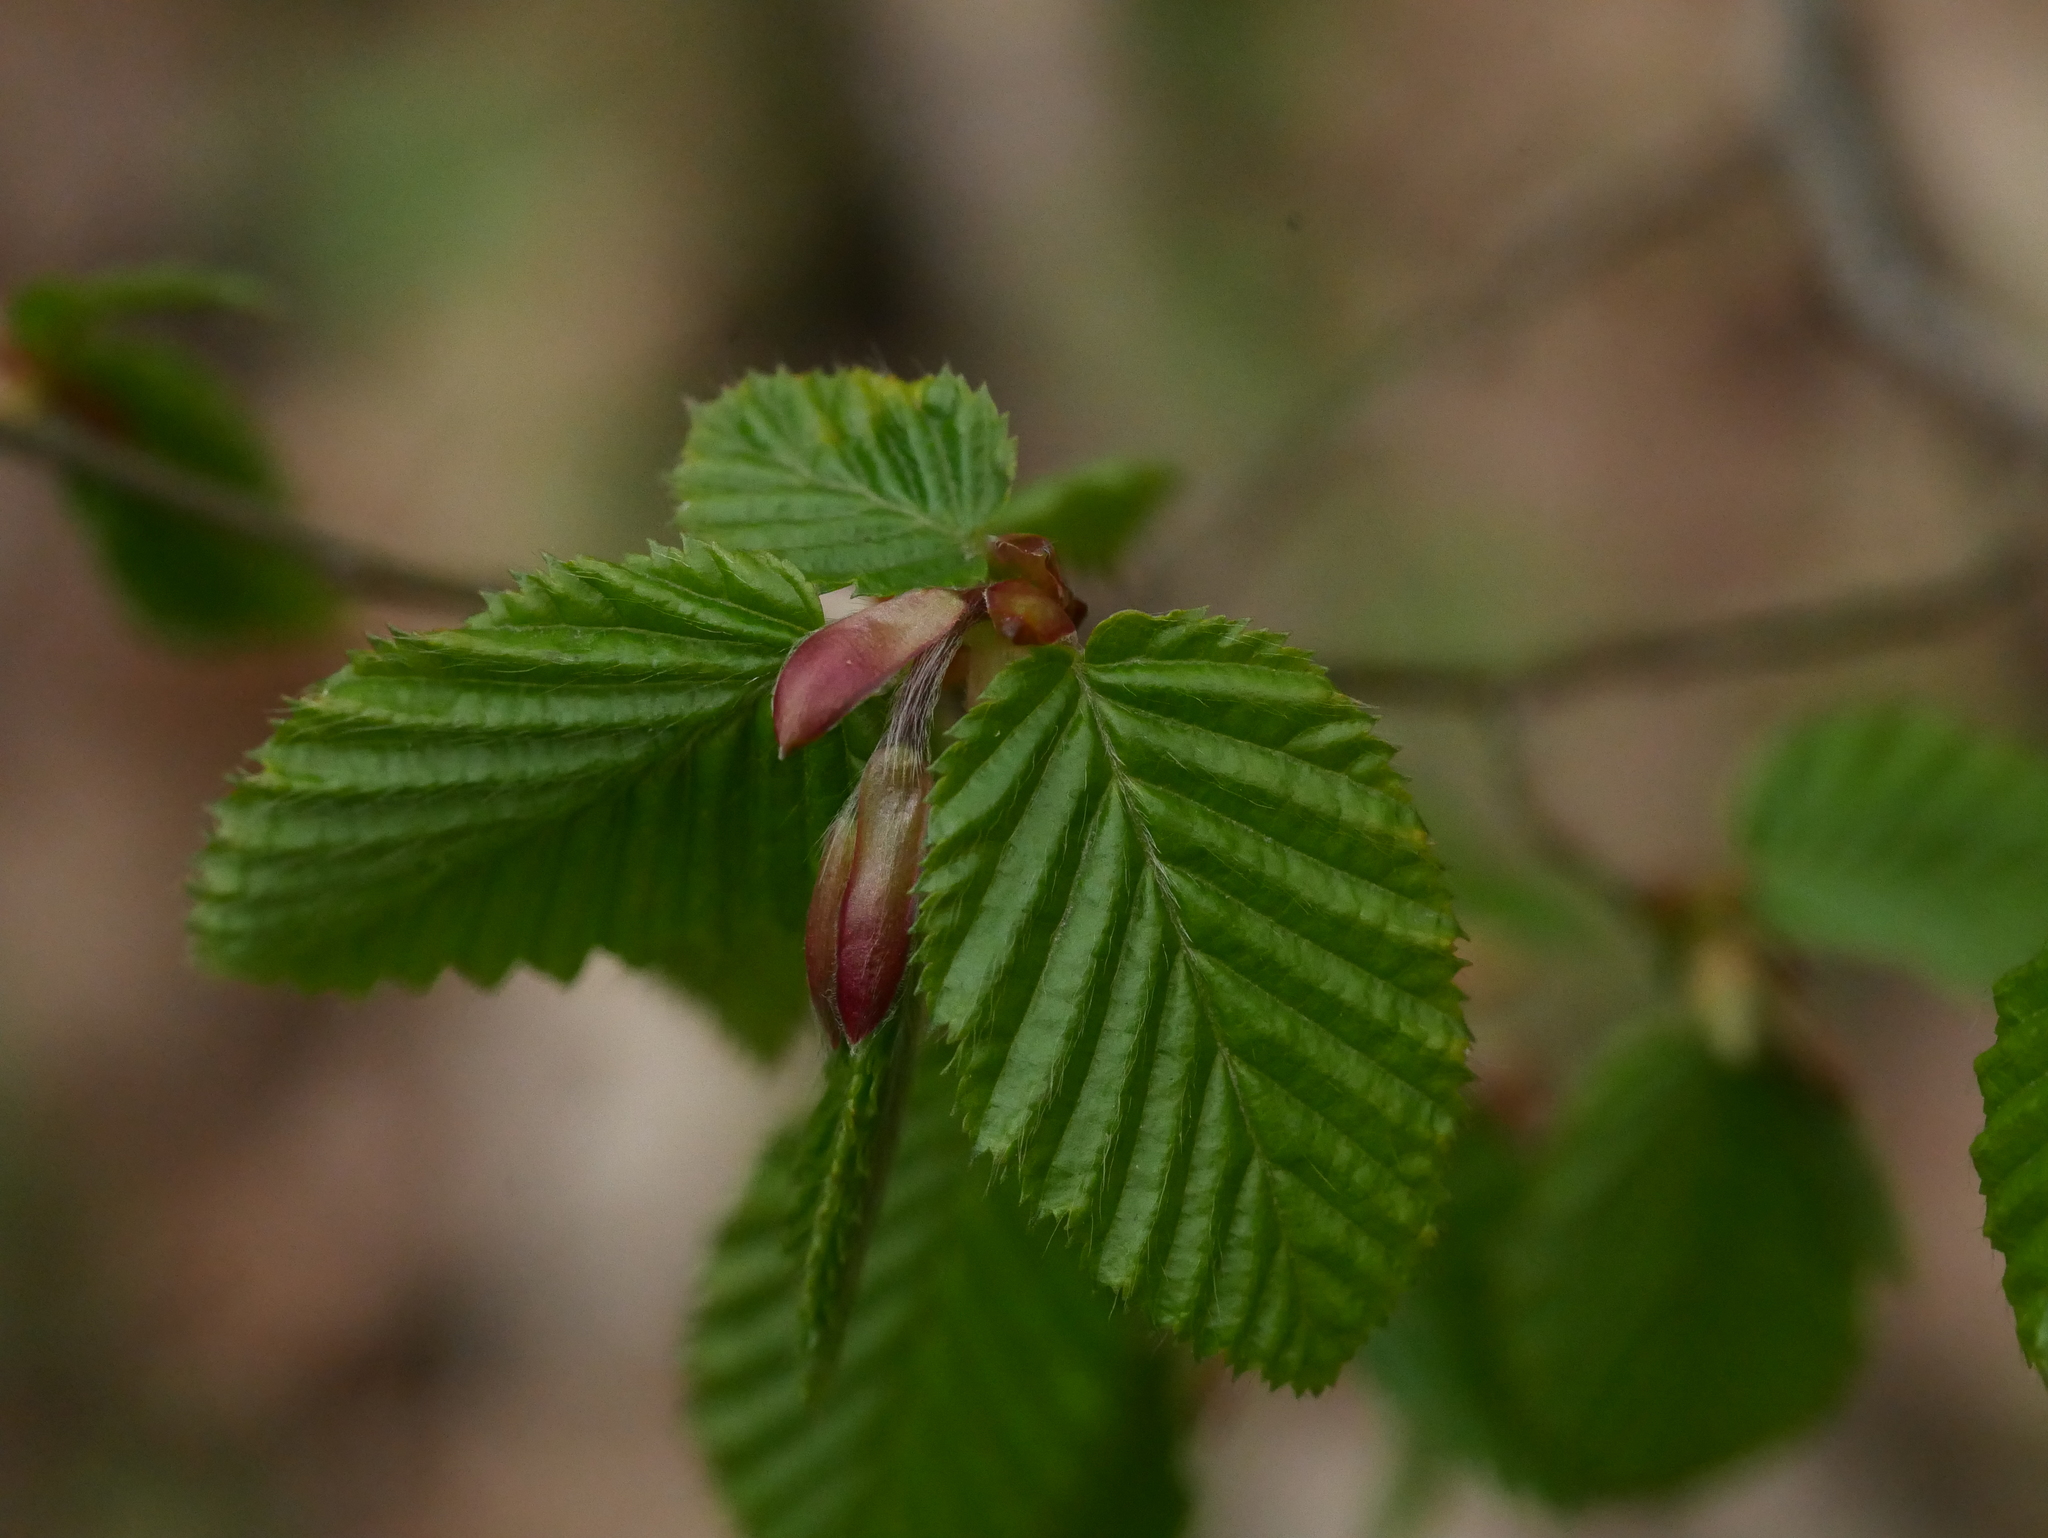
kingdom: Plantae
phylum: Tracheophyta
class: Magnoliopsida
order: Fagales
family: Betulaceae
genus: Carpinus
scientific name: Carpinus betulus
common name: Hornbeam
